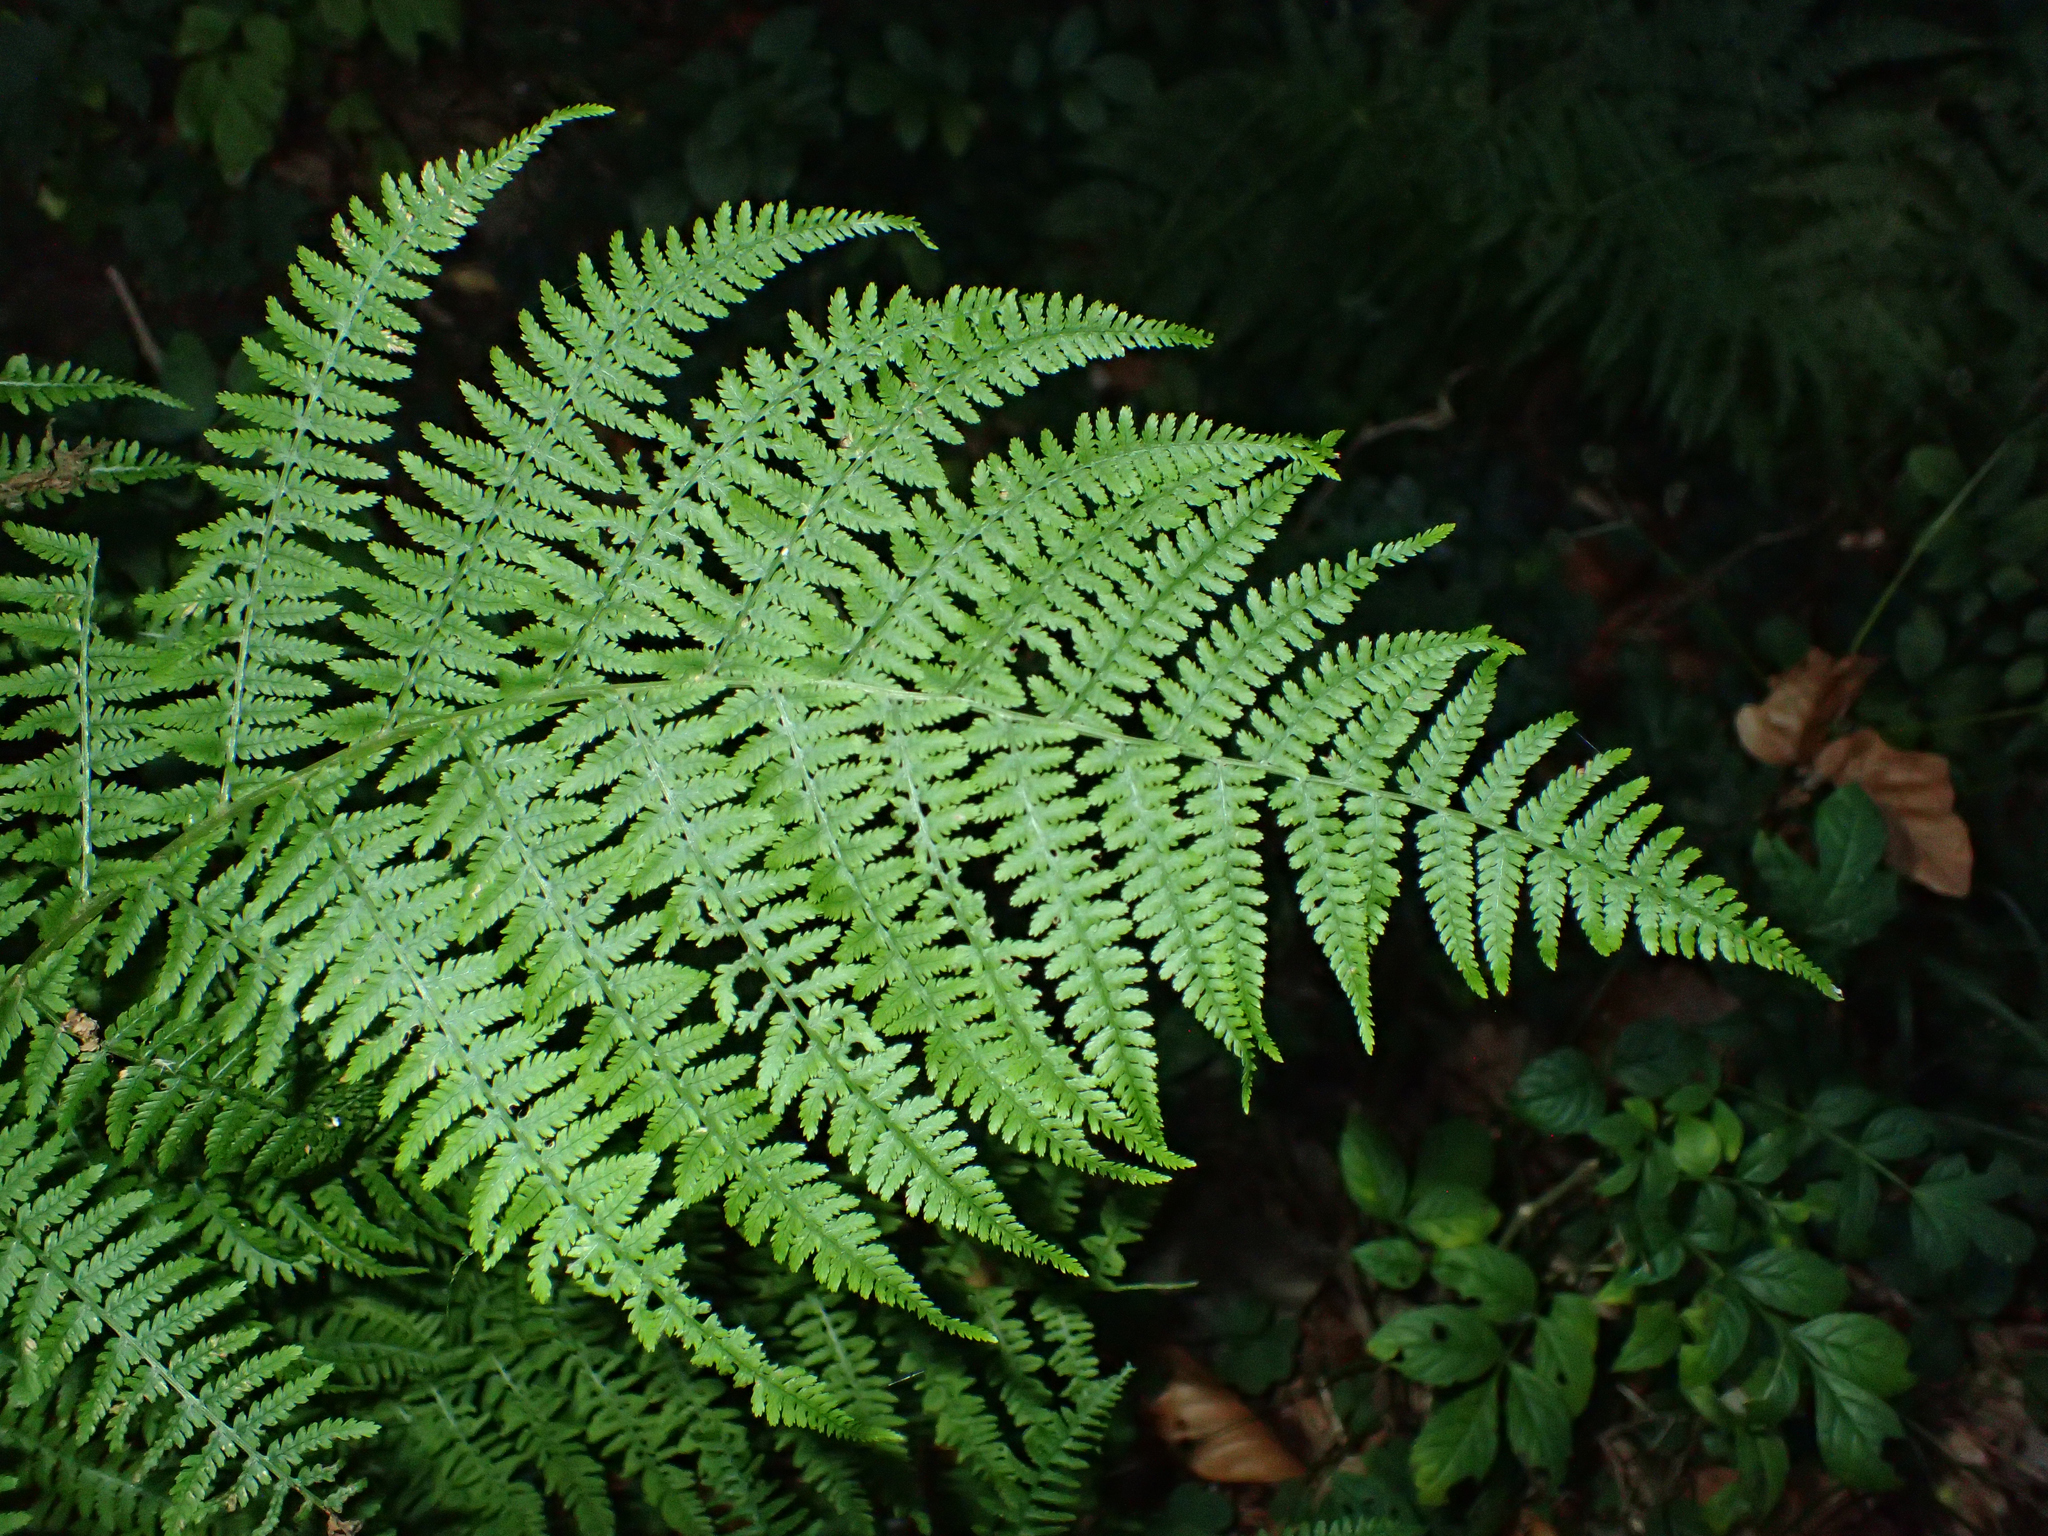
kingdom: Plantae
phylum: Tracheophyta
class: Polypodiopsida
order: Polypodiales
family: Athyriaceae
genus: Athyrium
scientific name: Athyrium filix-femina
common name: Lady fern
